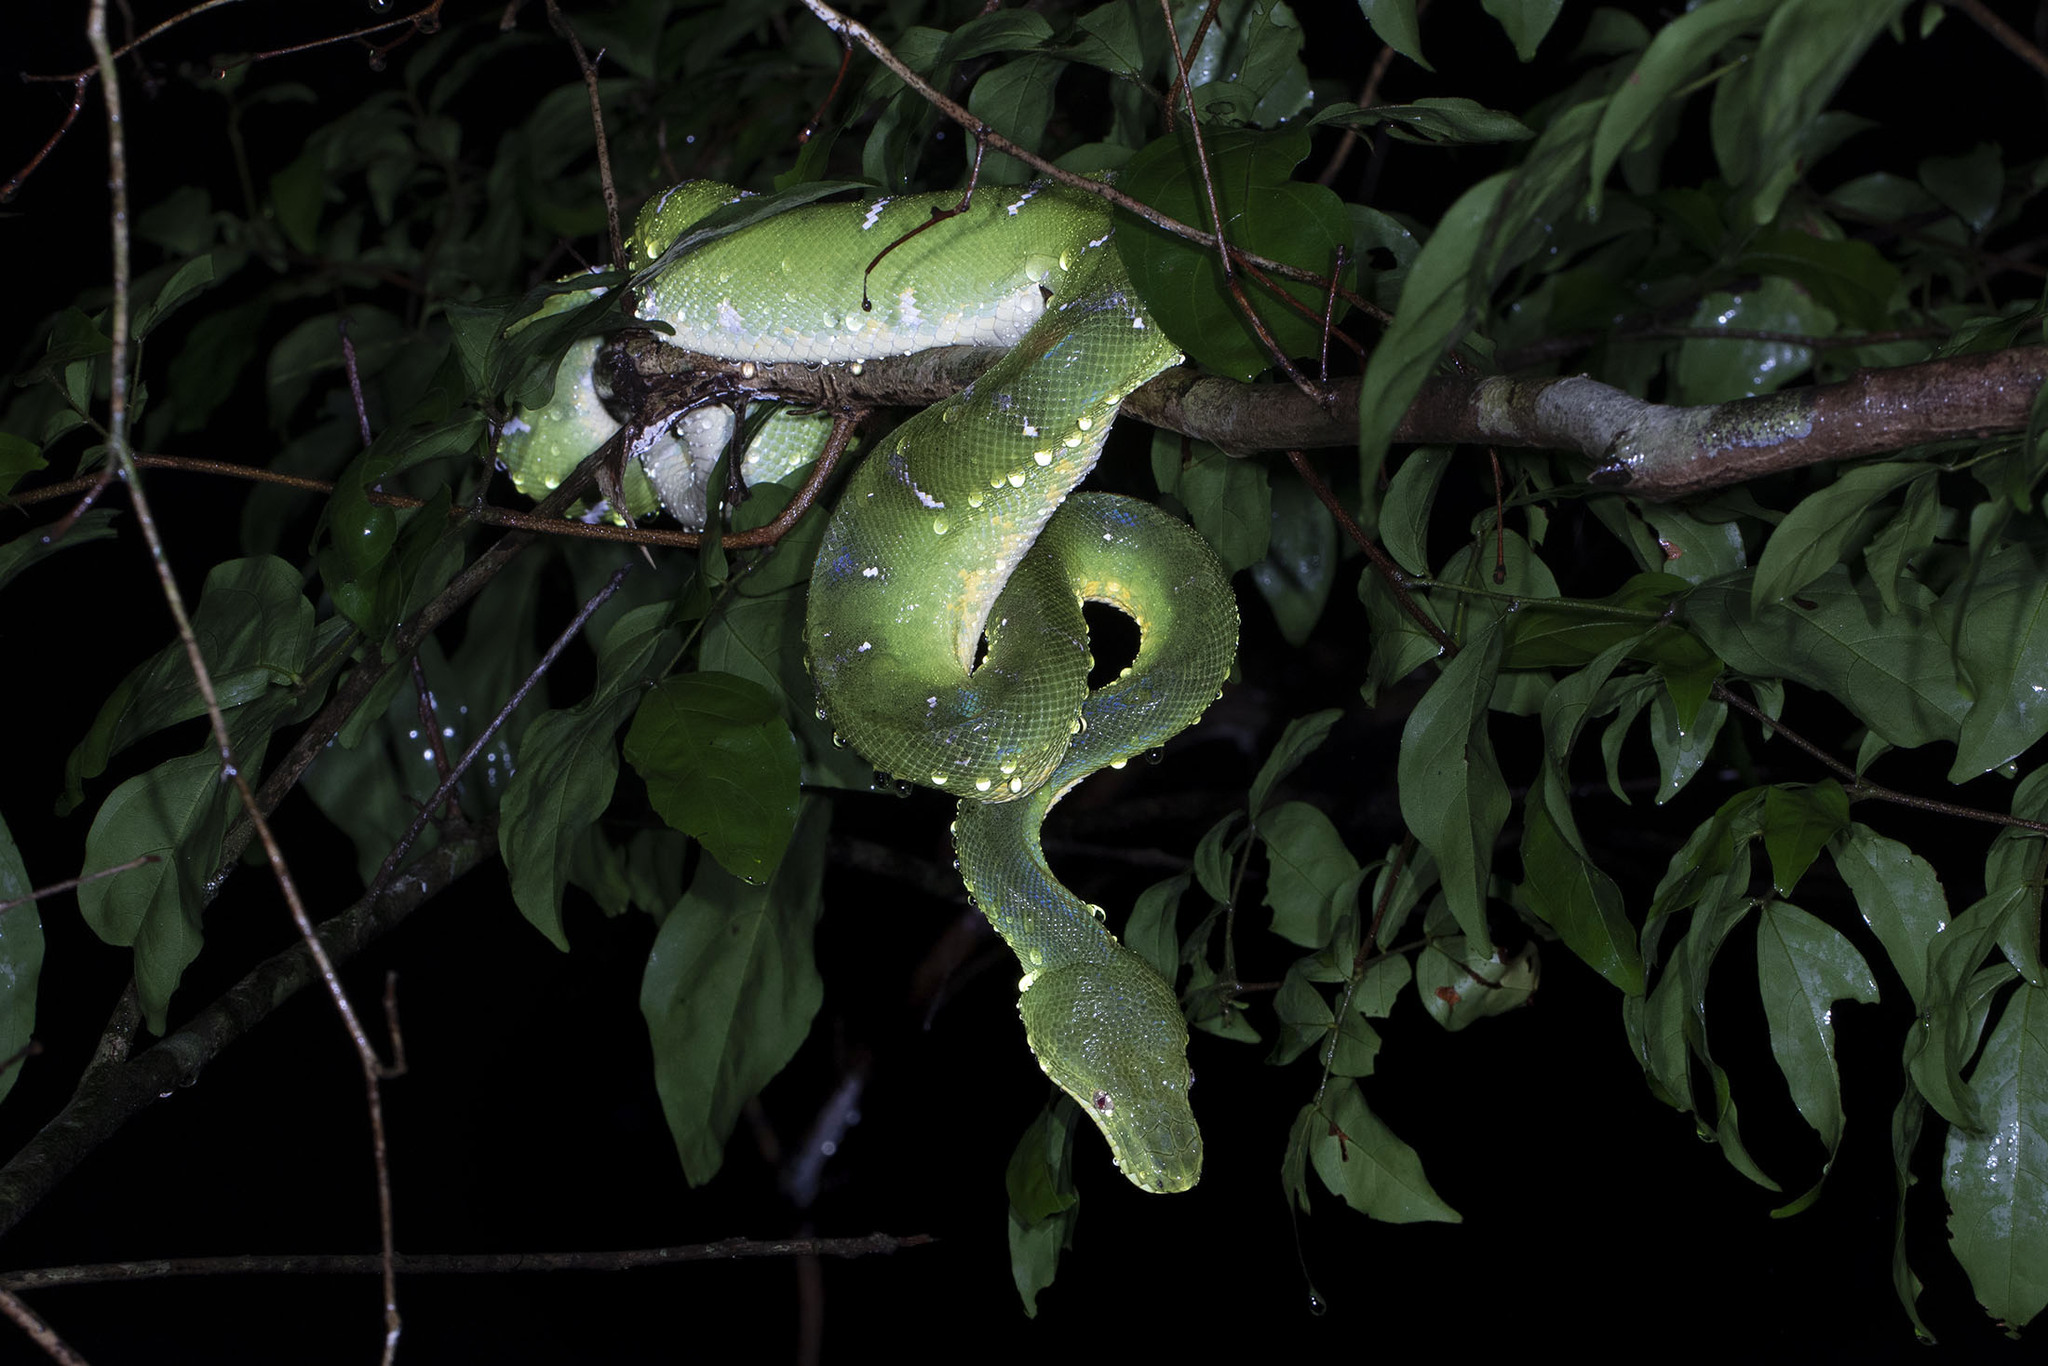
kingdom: Animalia
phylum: Chordata
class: Squamata
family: Boidae
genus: Corallus
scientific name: Corallus caninus
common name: Emerald tree boa
